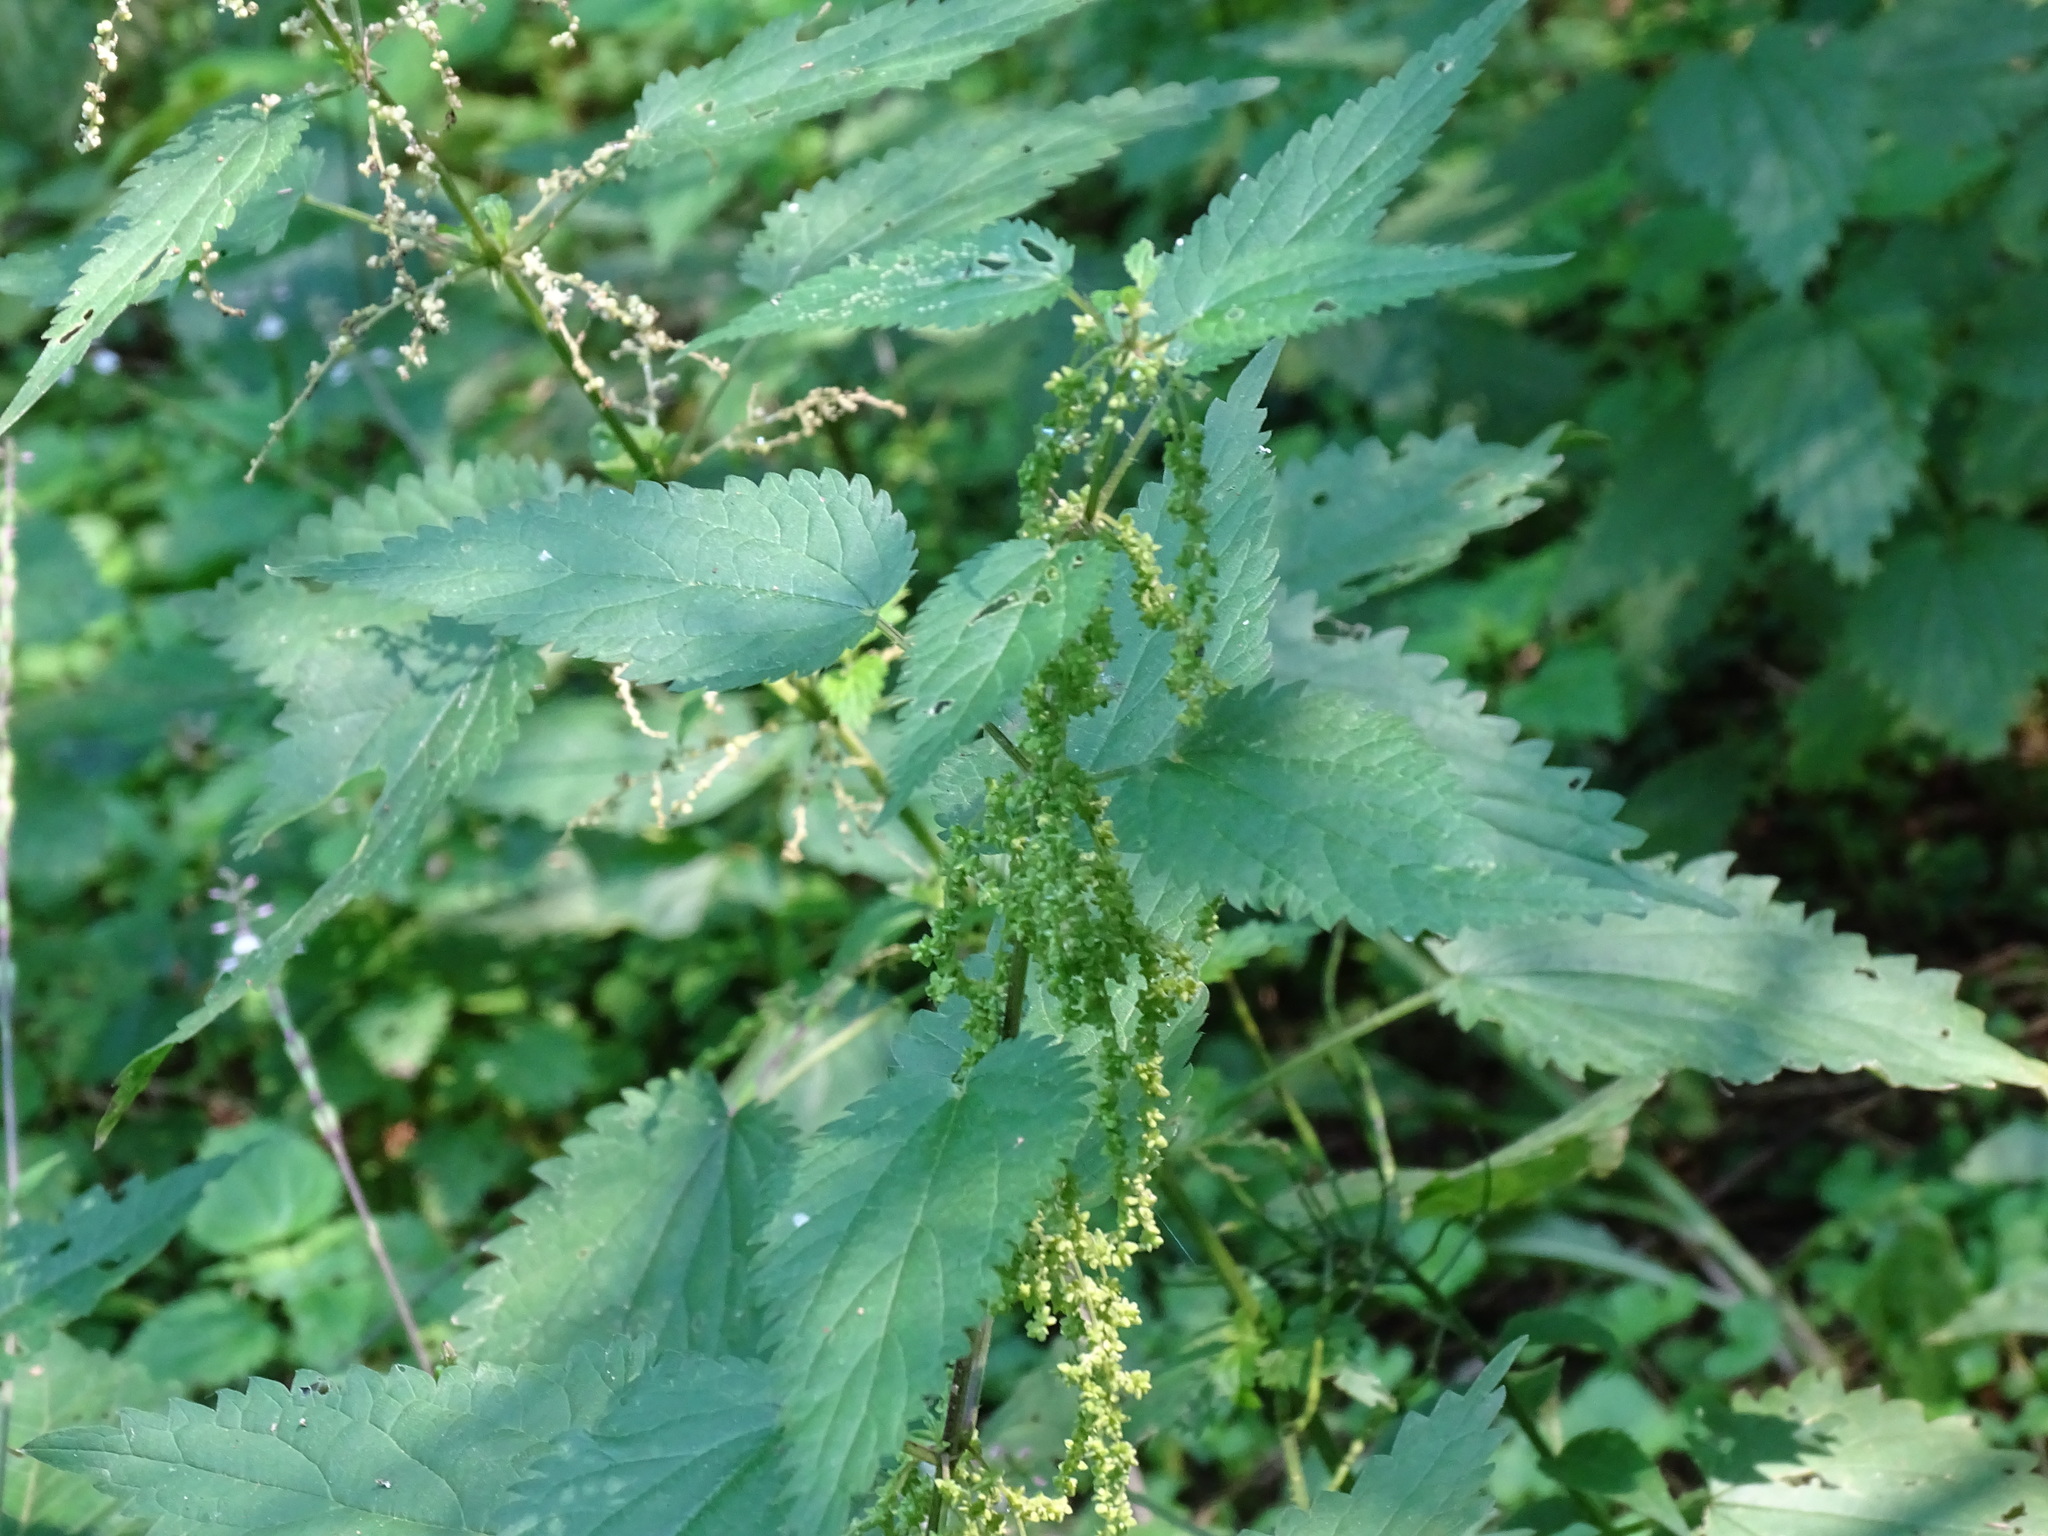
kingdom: Plantae
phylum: Tracheophyta
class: Magnoliopsida
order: Rosales
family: Urticaceae
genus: Urtica
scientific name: Urtica gracilis
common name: Slender stinging nettle
